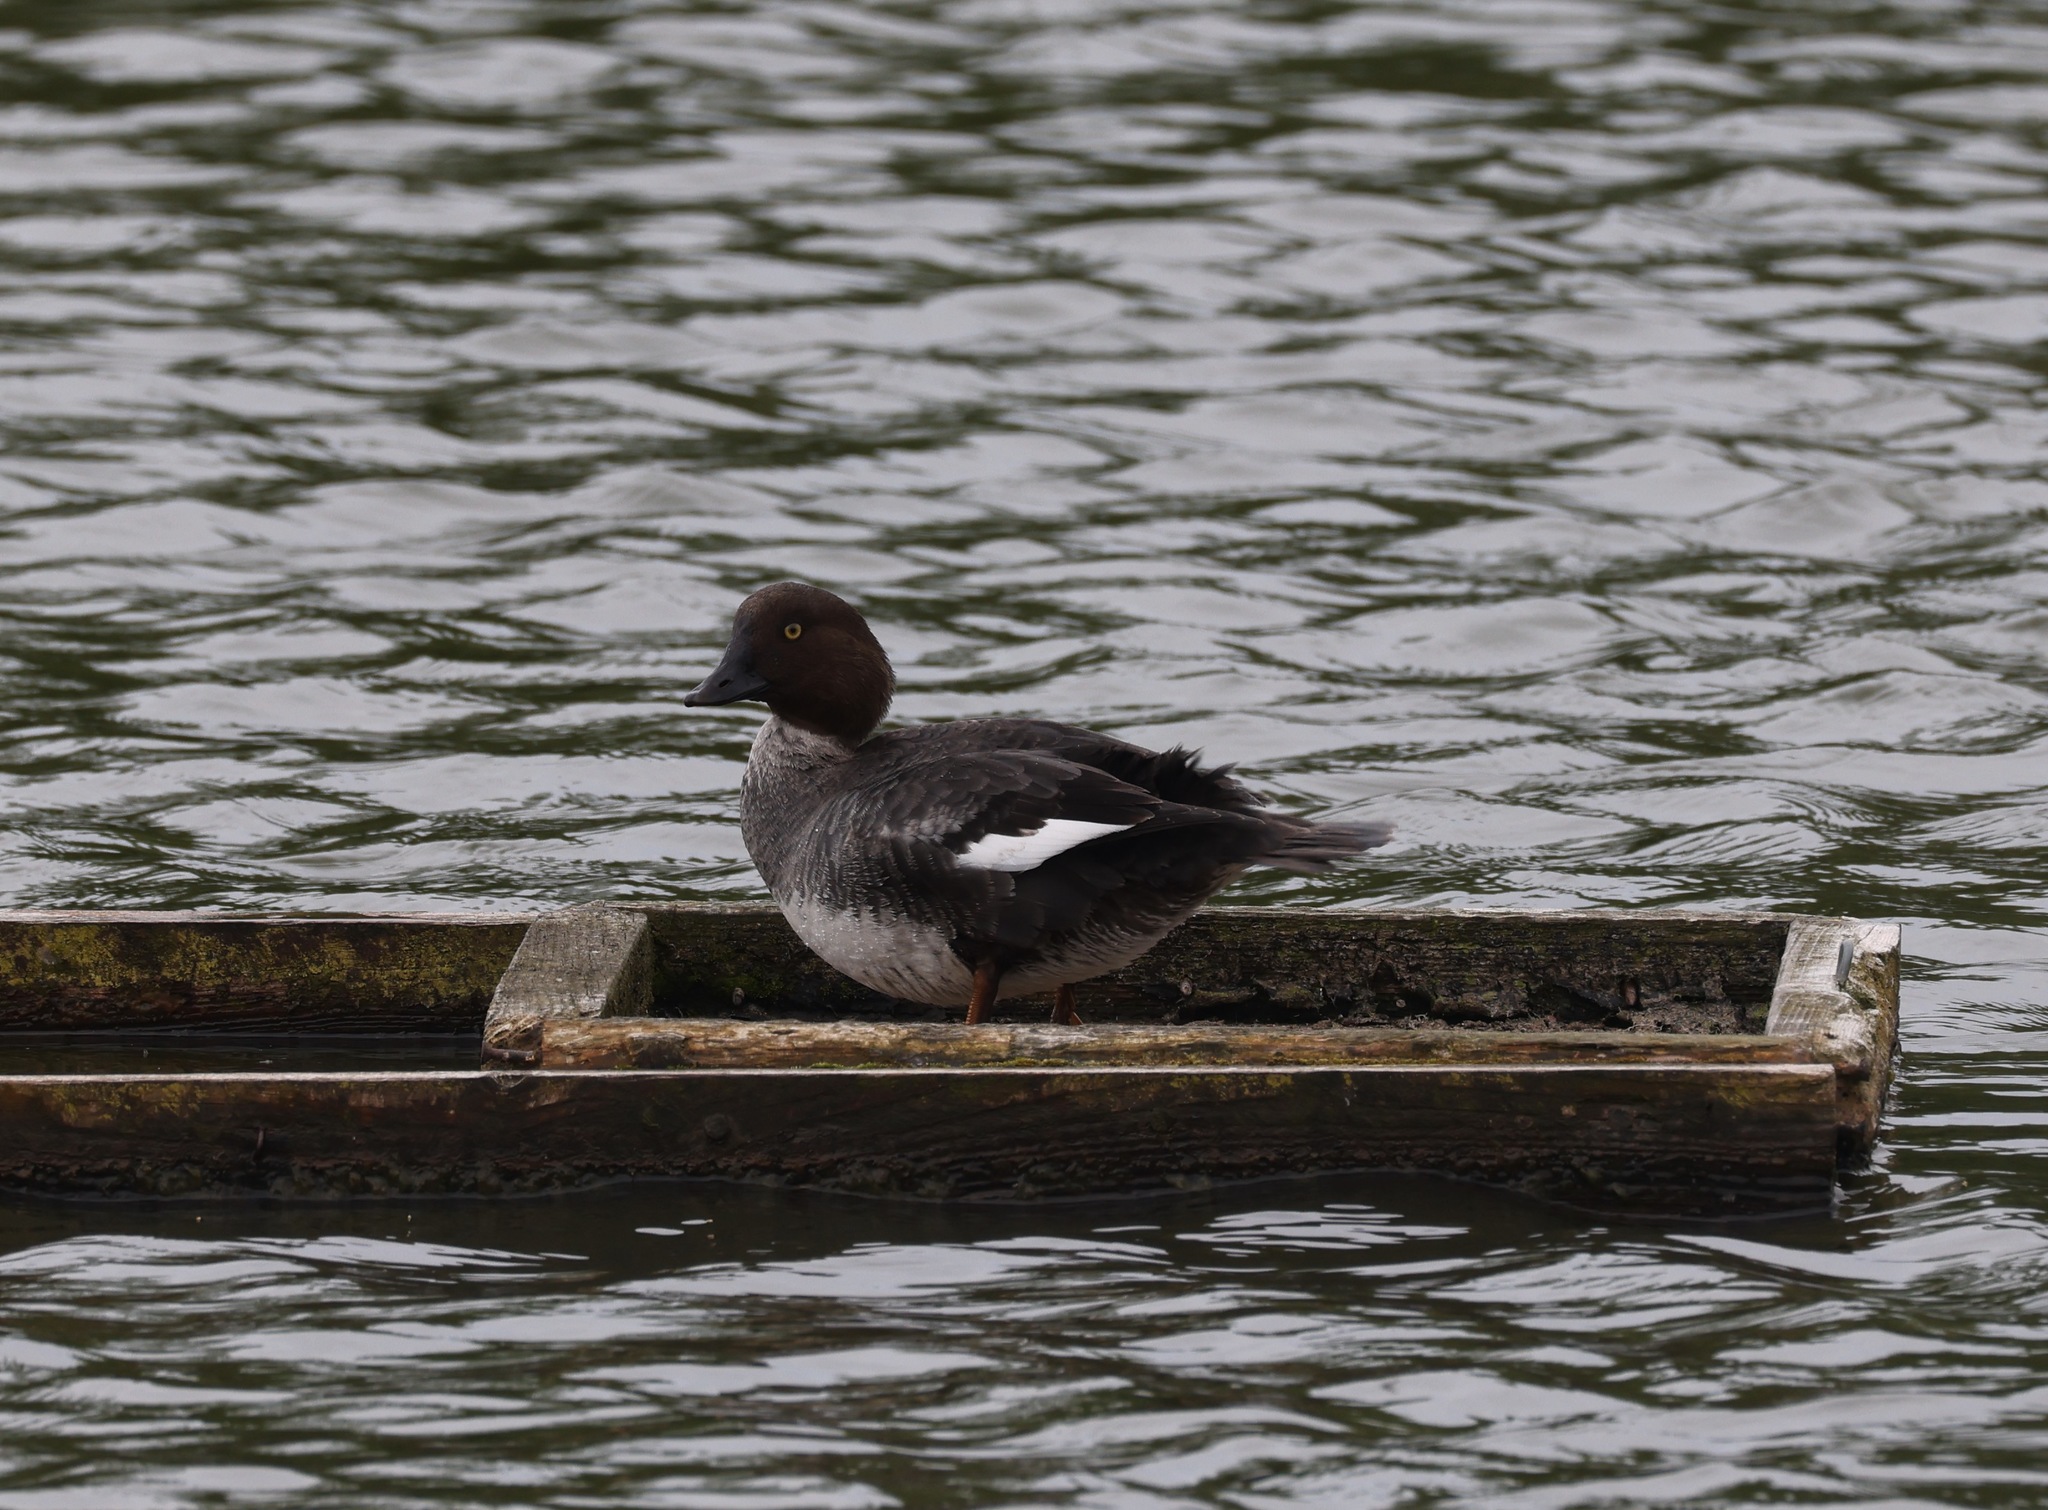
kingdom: Animalia
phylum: Chordata
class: Aves
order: Anseriformes
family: Anatidae
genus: Bucephala
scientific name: Bucephala clangula
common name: Common goldeneye
